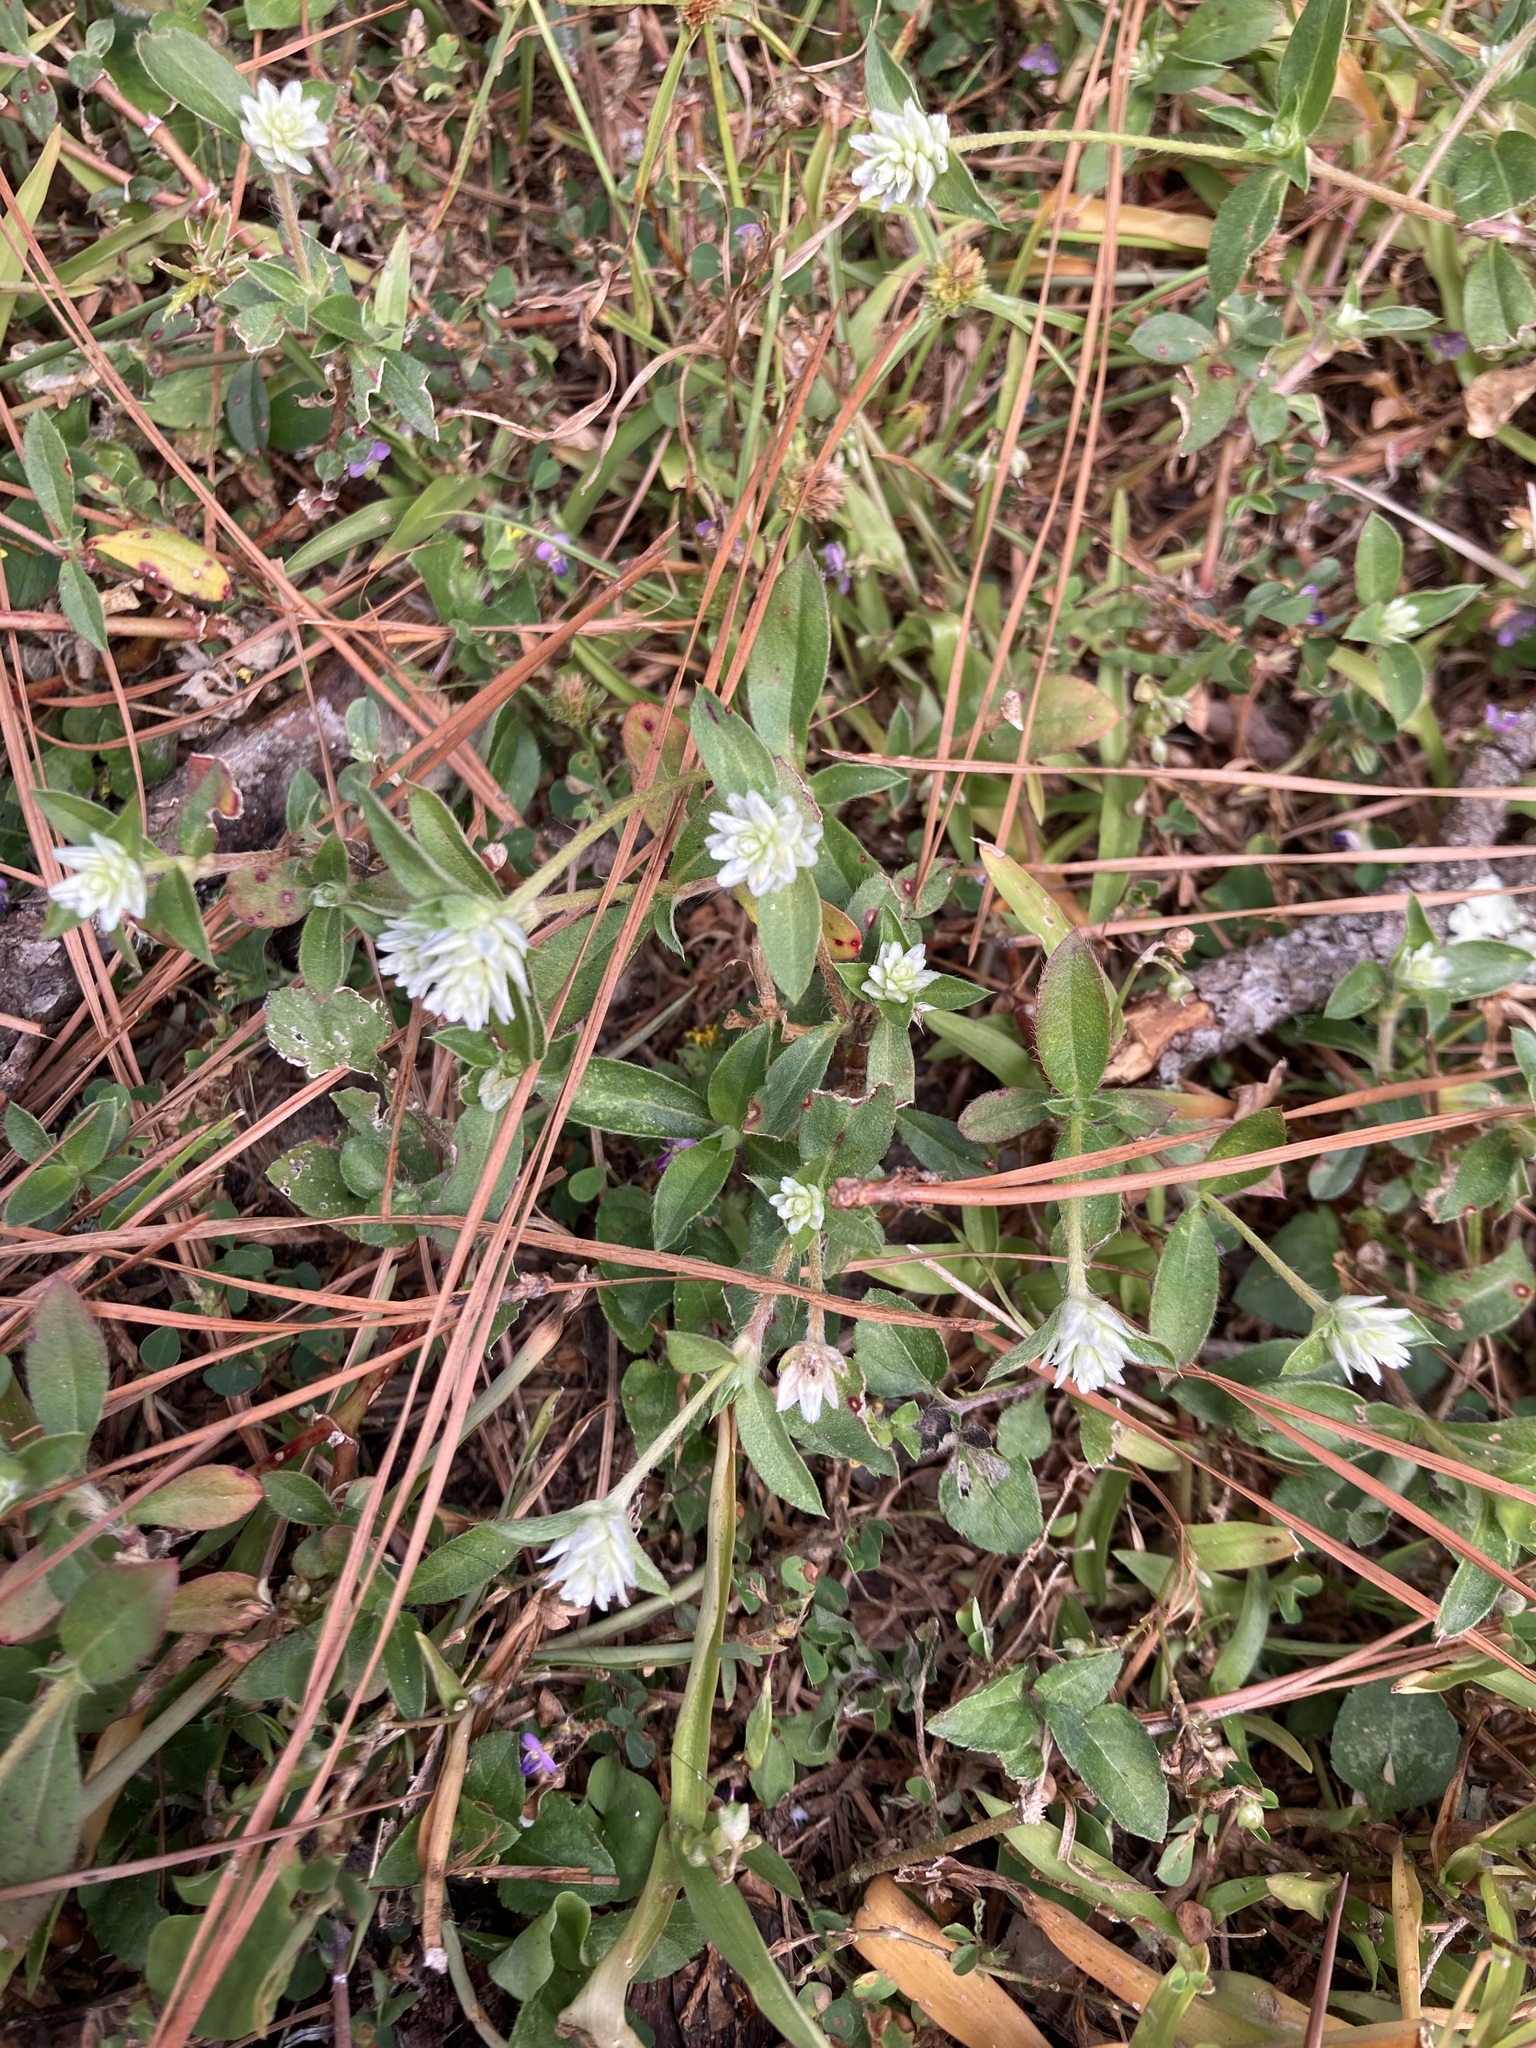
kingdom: Plantae
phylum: Tracheophyta
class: Magnoliopsida
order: Caryophyllales
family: Amaranthaceae
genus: Gomphrena
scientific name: Gomphrena serrata
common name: Arrasa con todo
